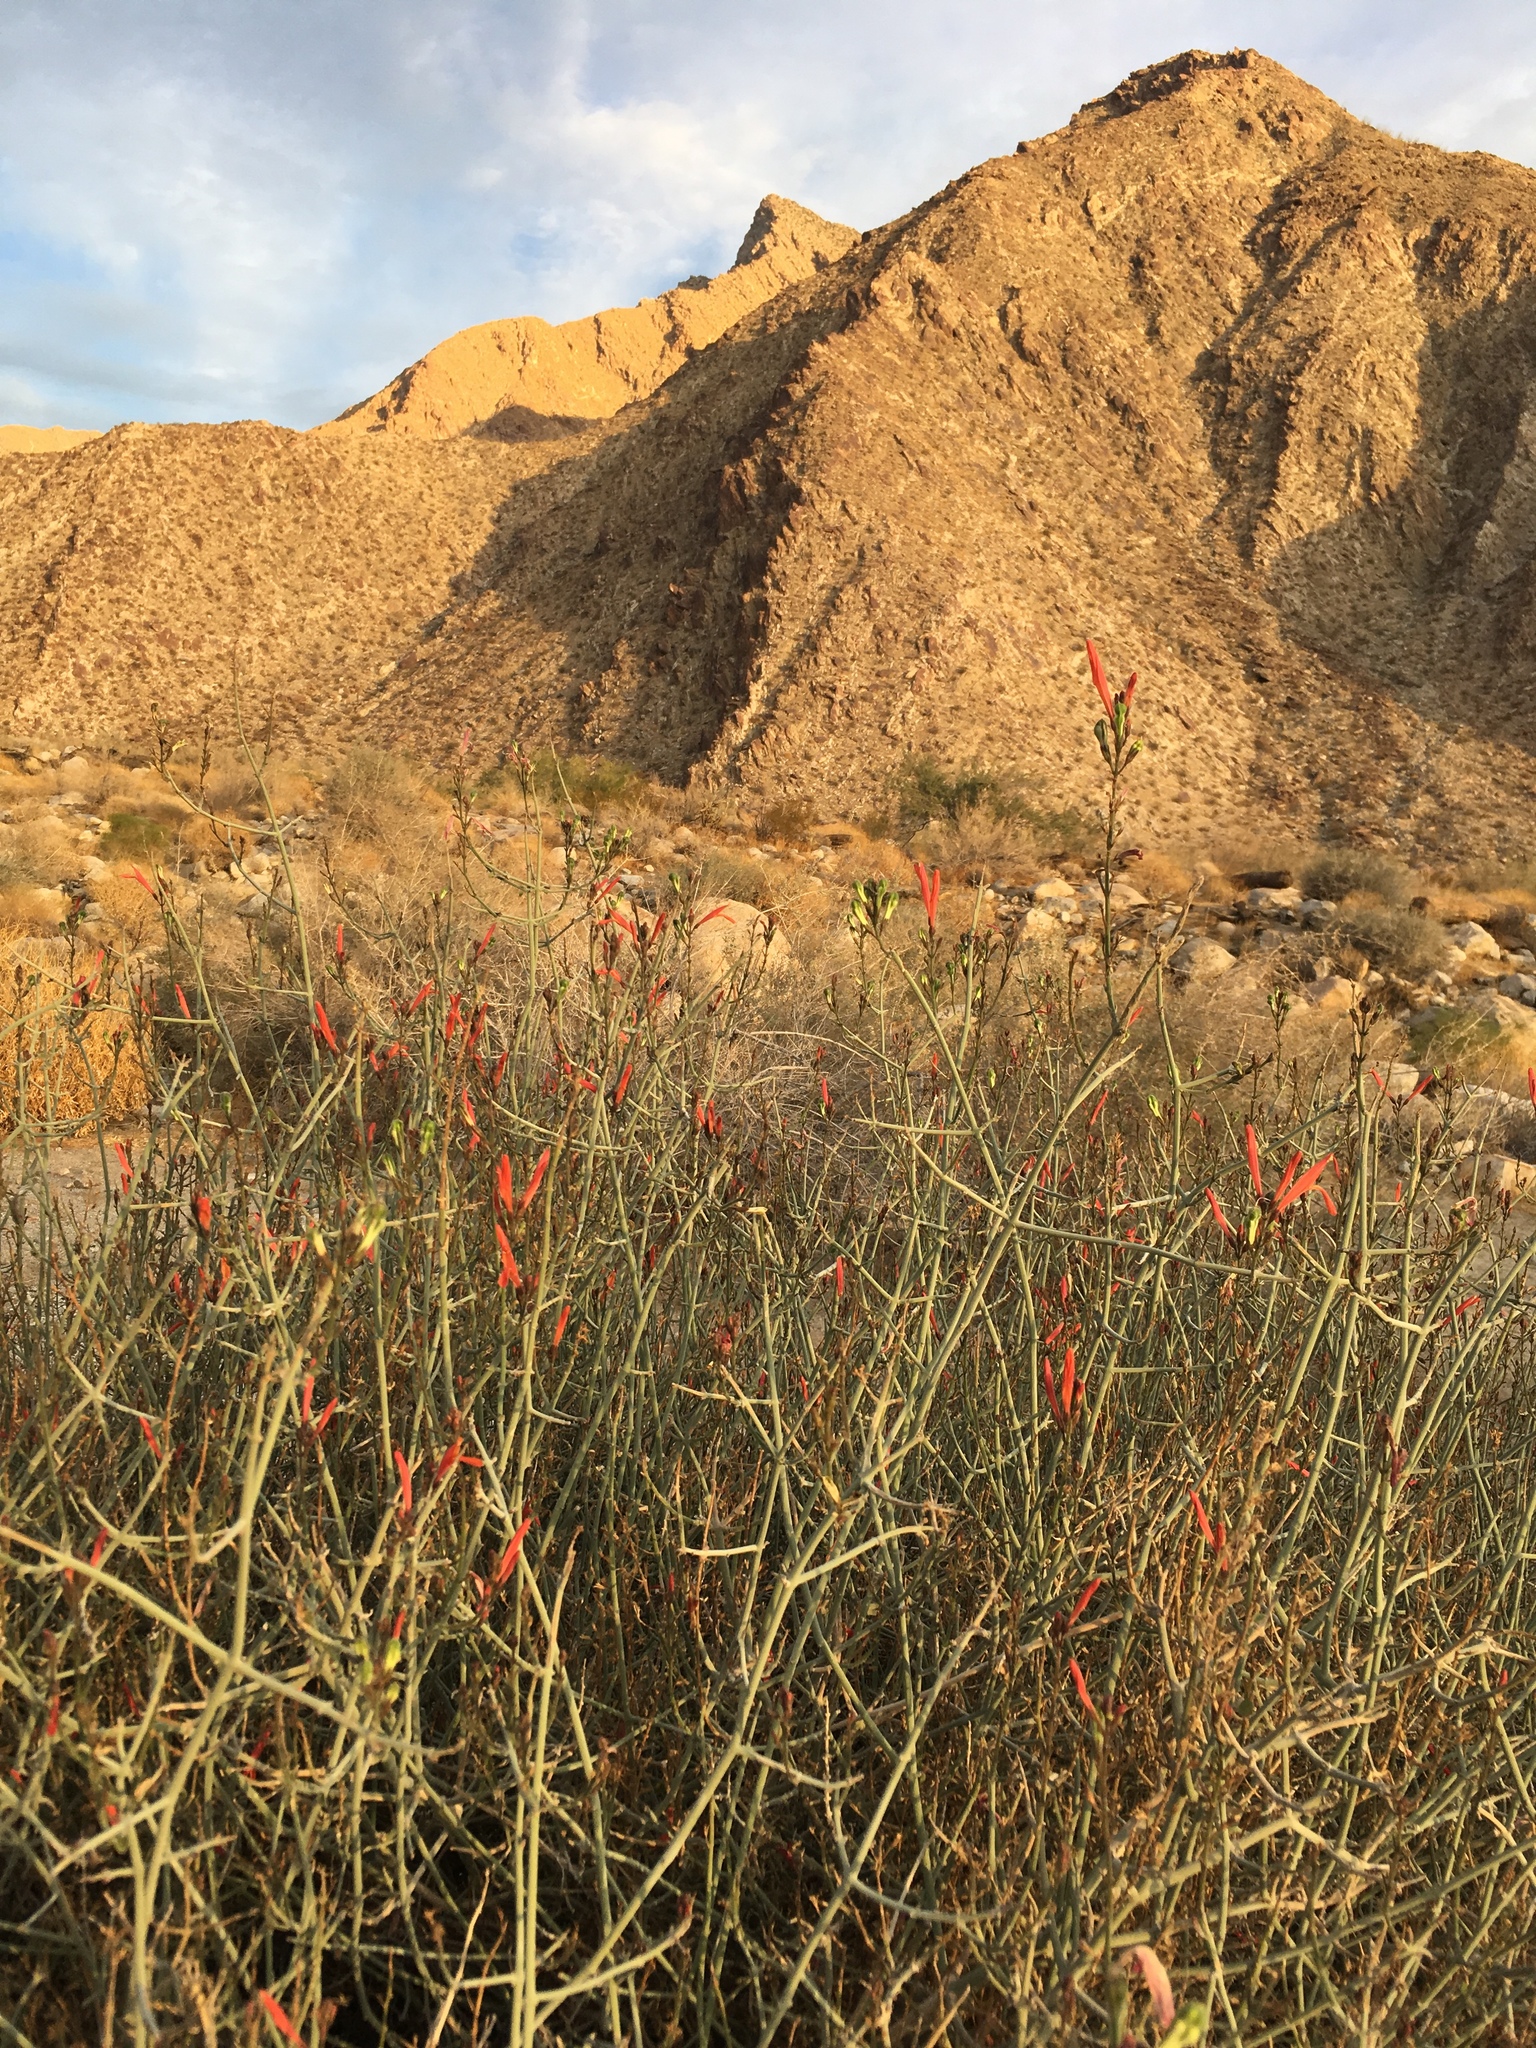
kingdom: Plantae
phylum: Tracheophyta
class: Magnoliopsida
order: Lamiales
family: Acanthaceae
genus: Justicia
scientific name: Justicia californica
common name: Chuparosa-honeysuckle
